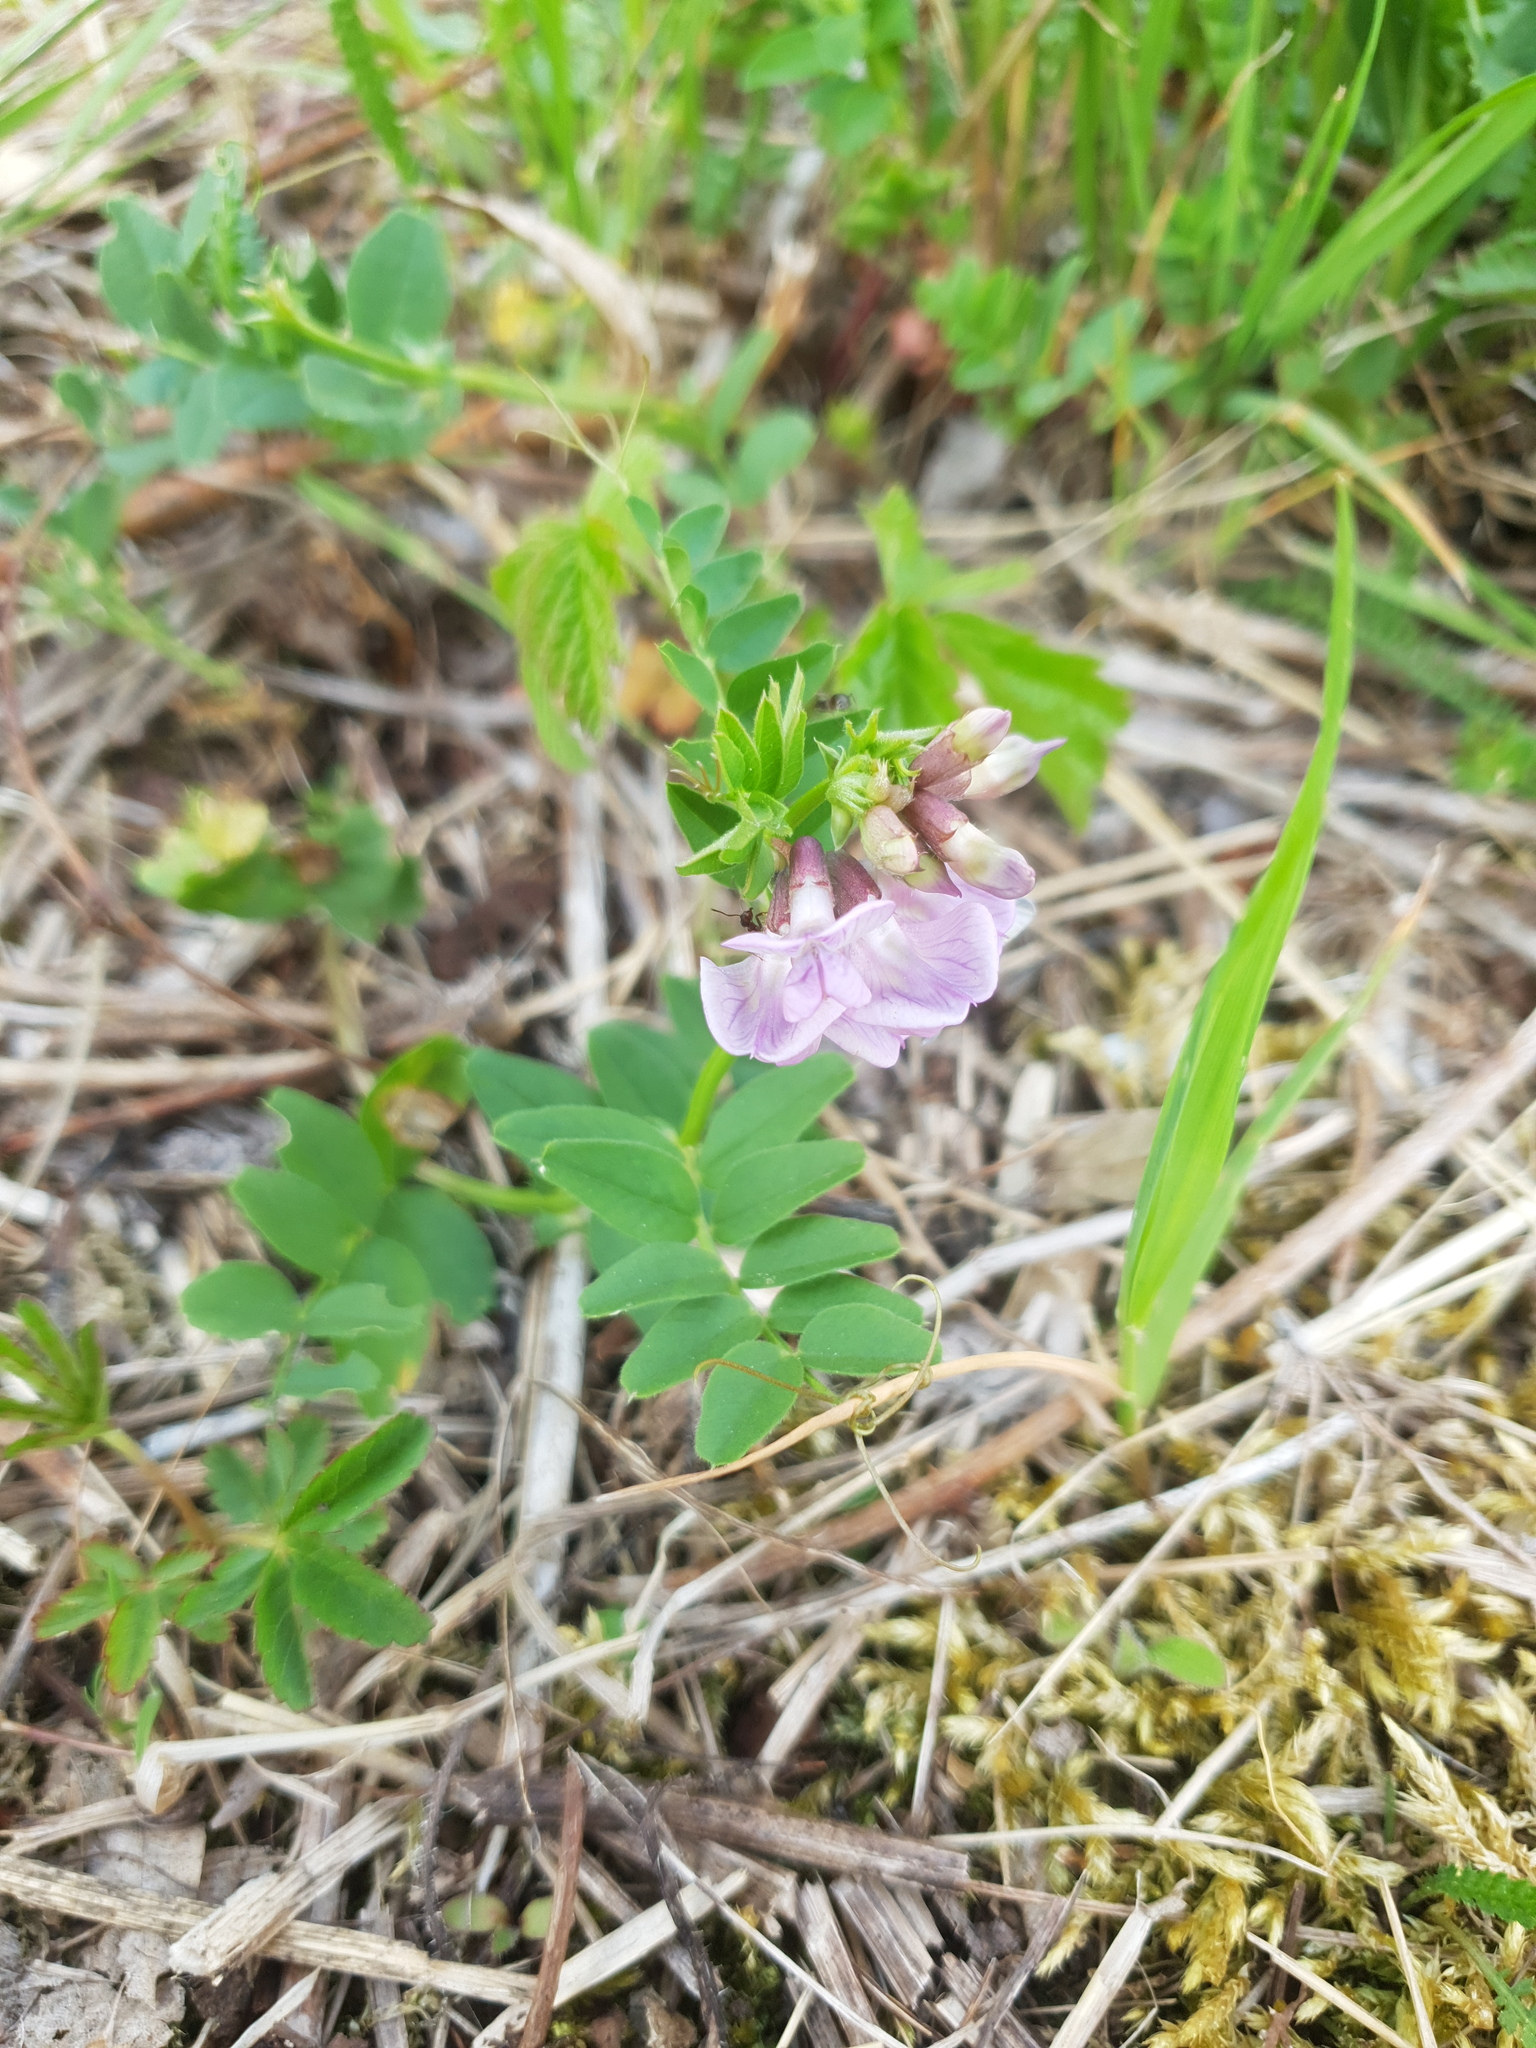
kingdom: Plantae
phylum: Tracheophyta
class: Magnoliopsida
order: Fabales
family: Fabaceae
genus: Vicia
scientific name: Vicia sepium
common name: Bush vetch
